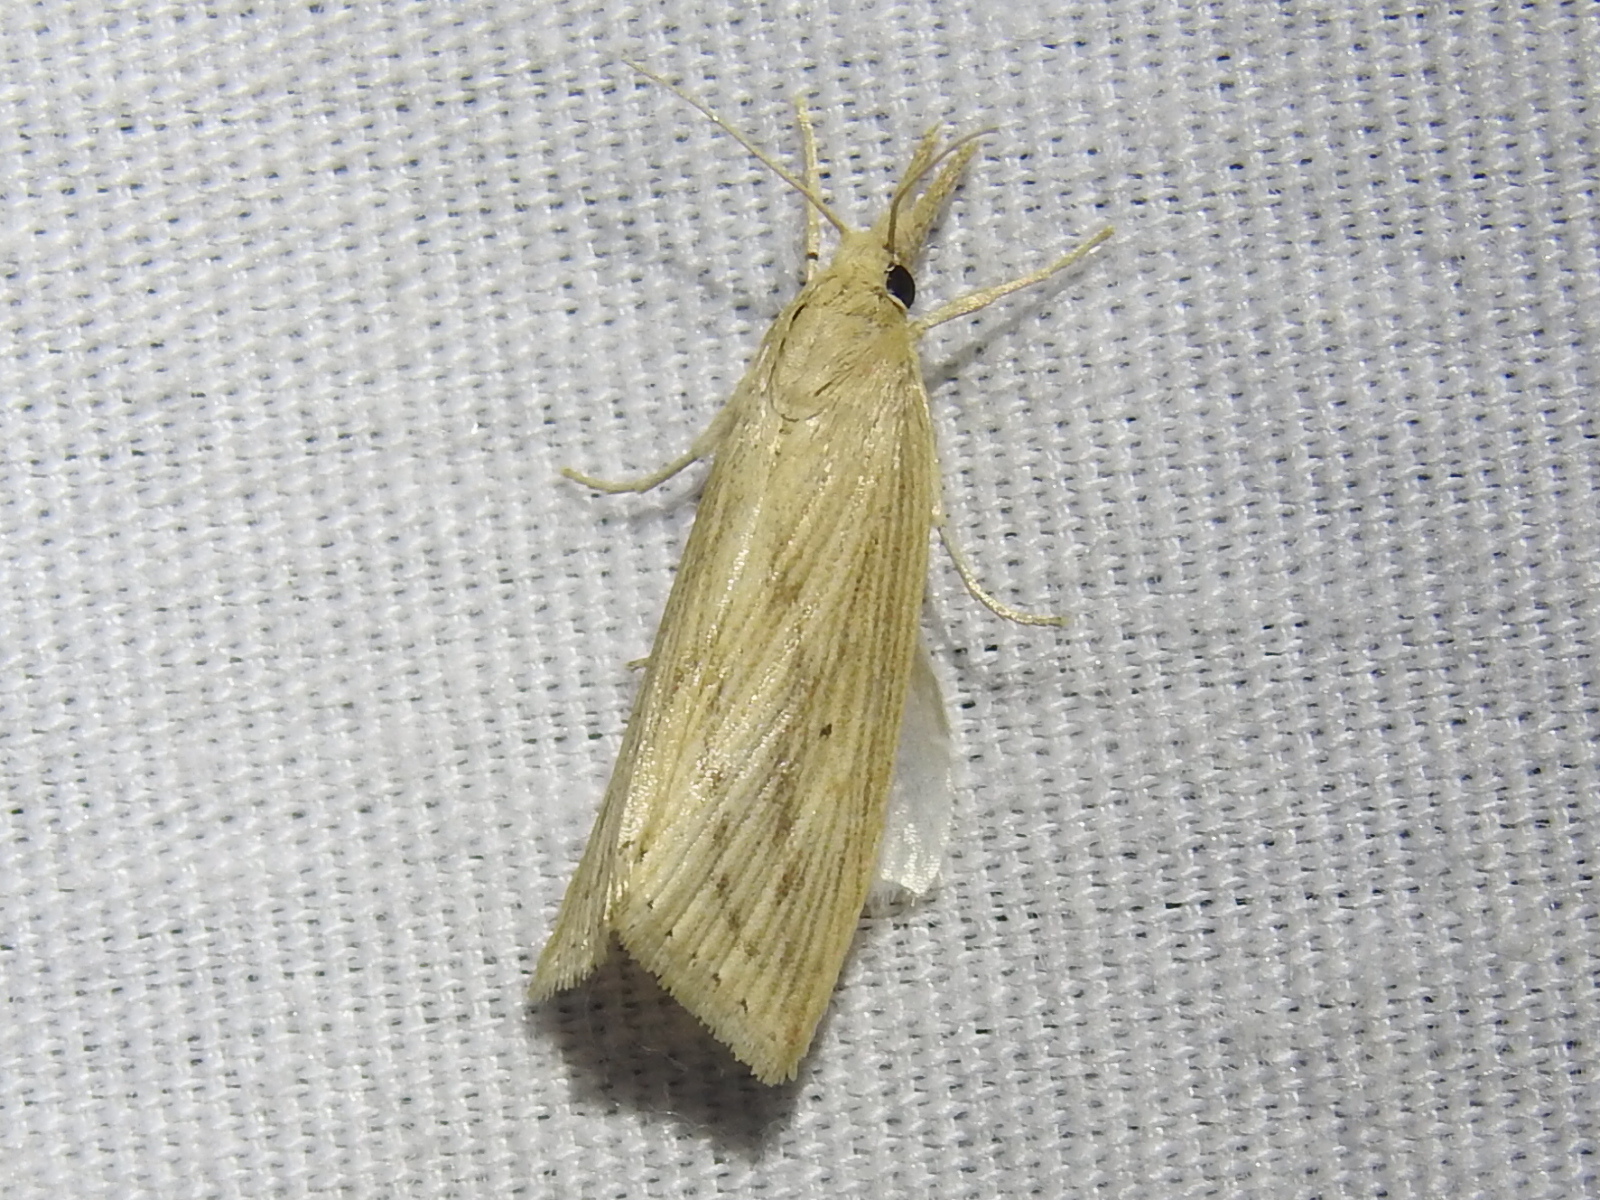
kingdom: Animalia
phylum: Arthropoda
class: Insecta
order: Lepidoptera
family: Crambidae
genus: Diatraea
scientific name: Diatraea lisetta
